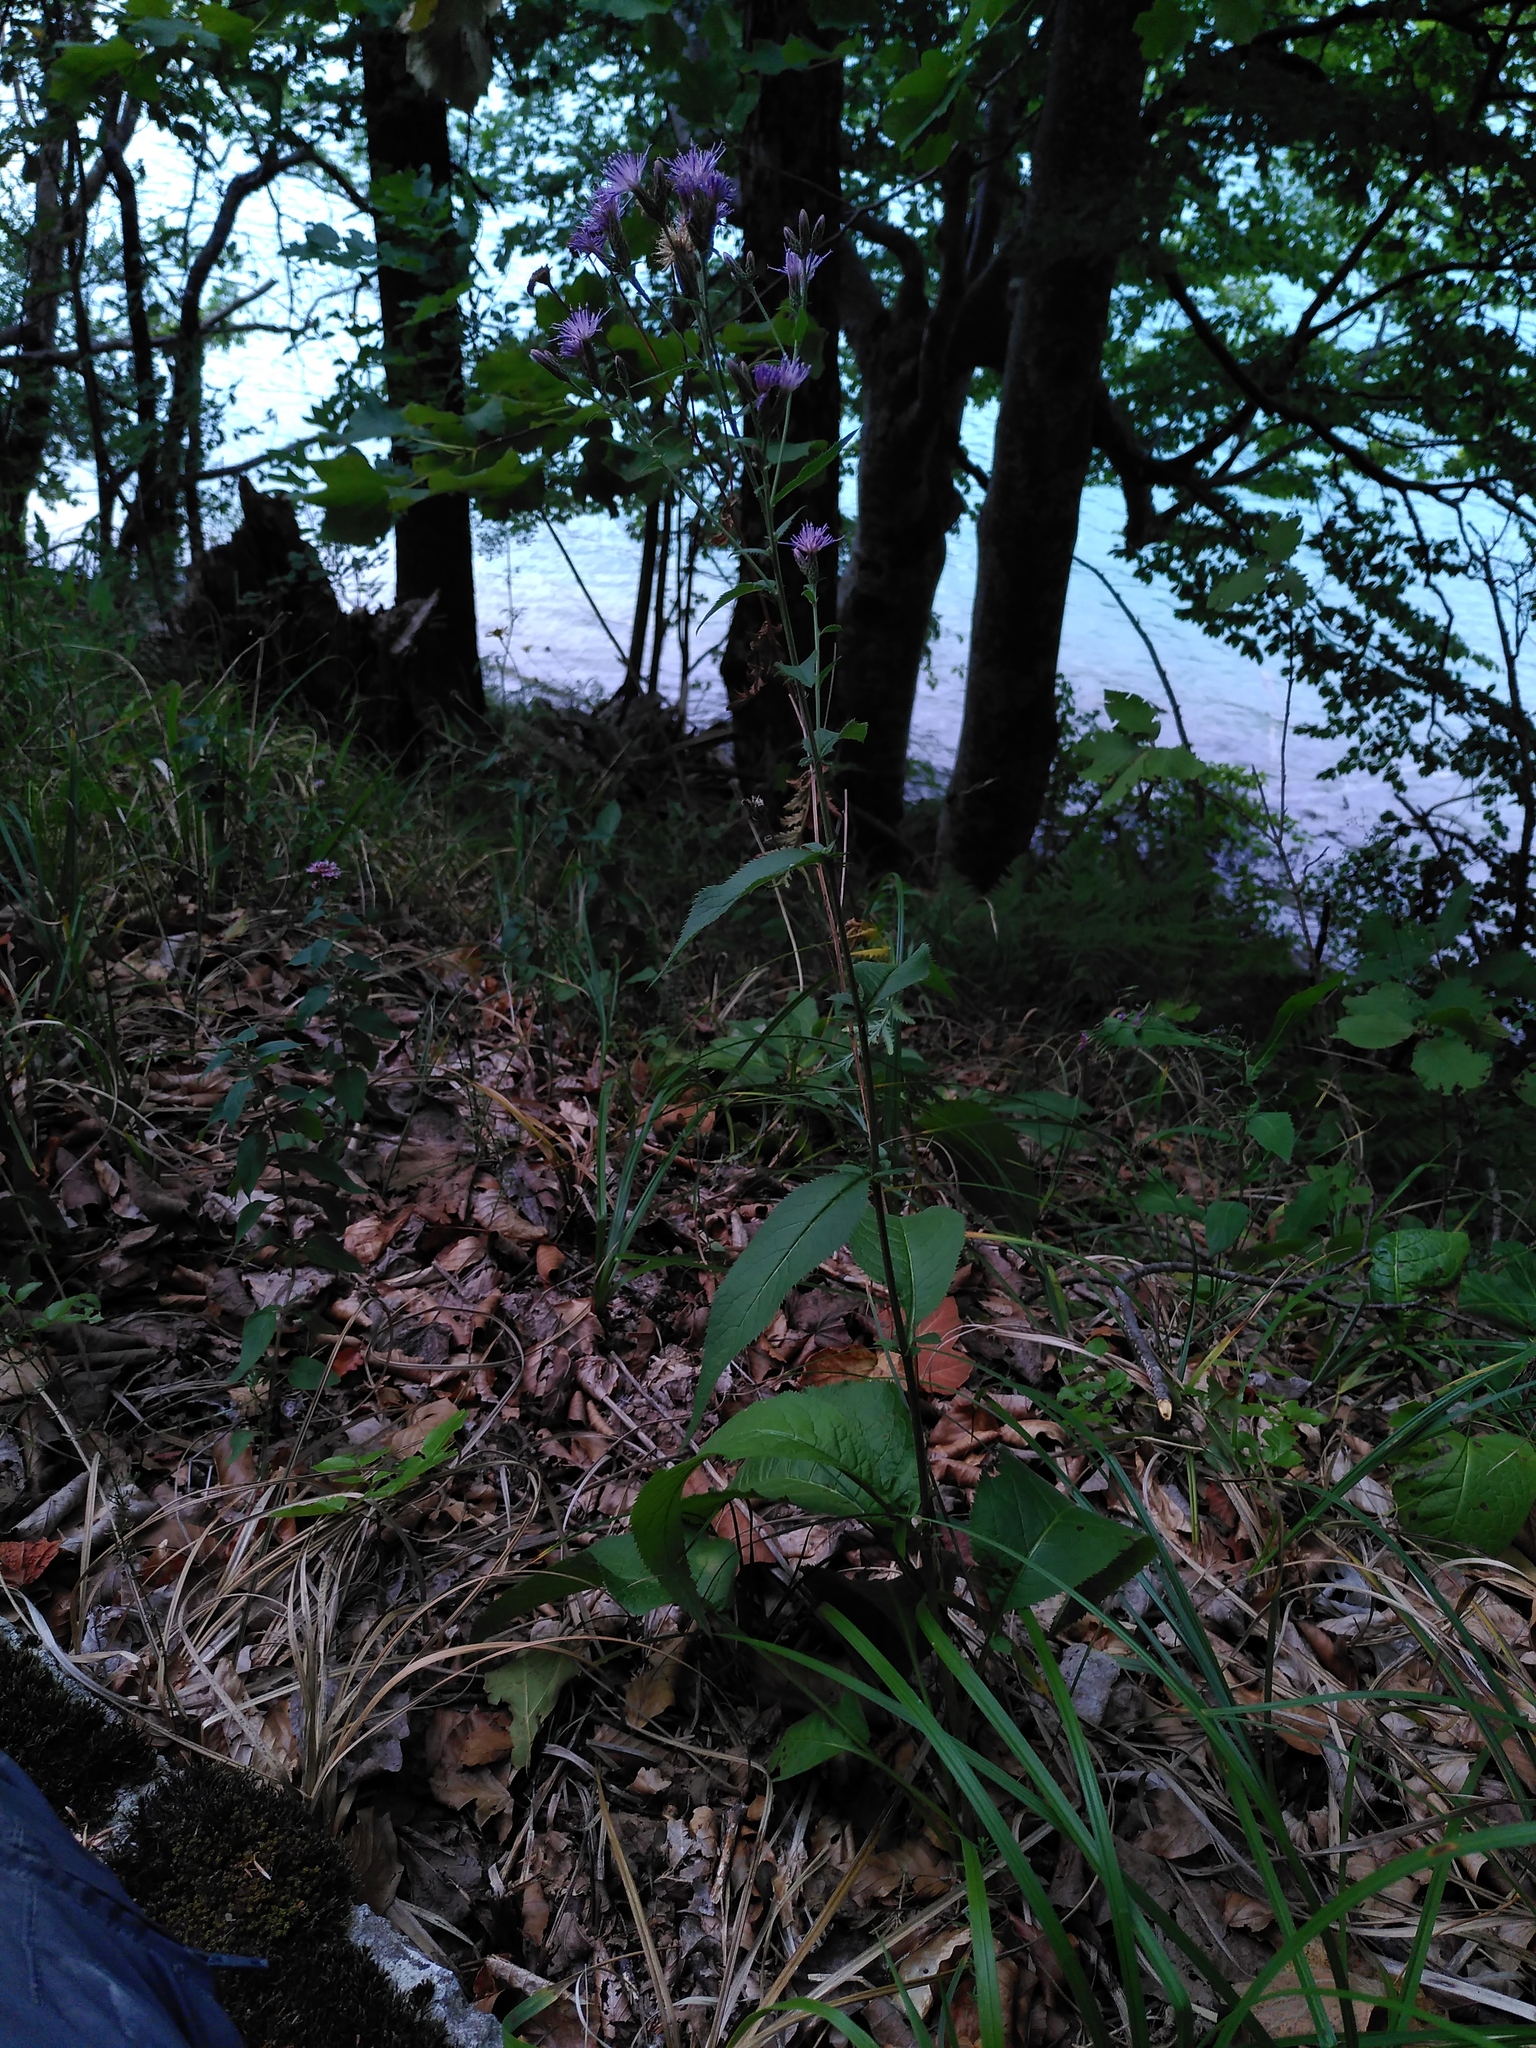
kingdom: Plantae
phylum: Tracheophyta
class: Magnoliopsida
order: Asterales
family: Asteraceae
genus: Serratula
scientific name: Serratula tinctoria
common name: Saw-wort
